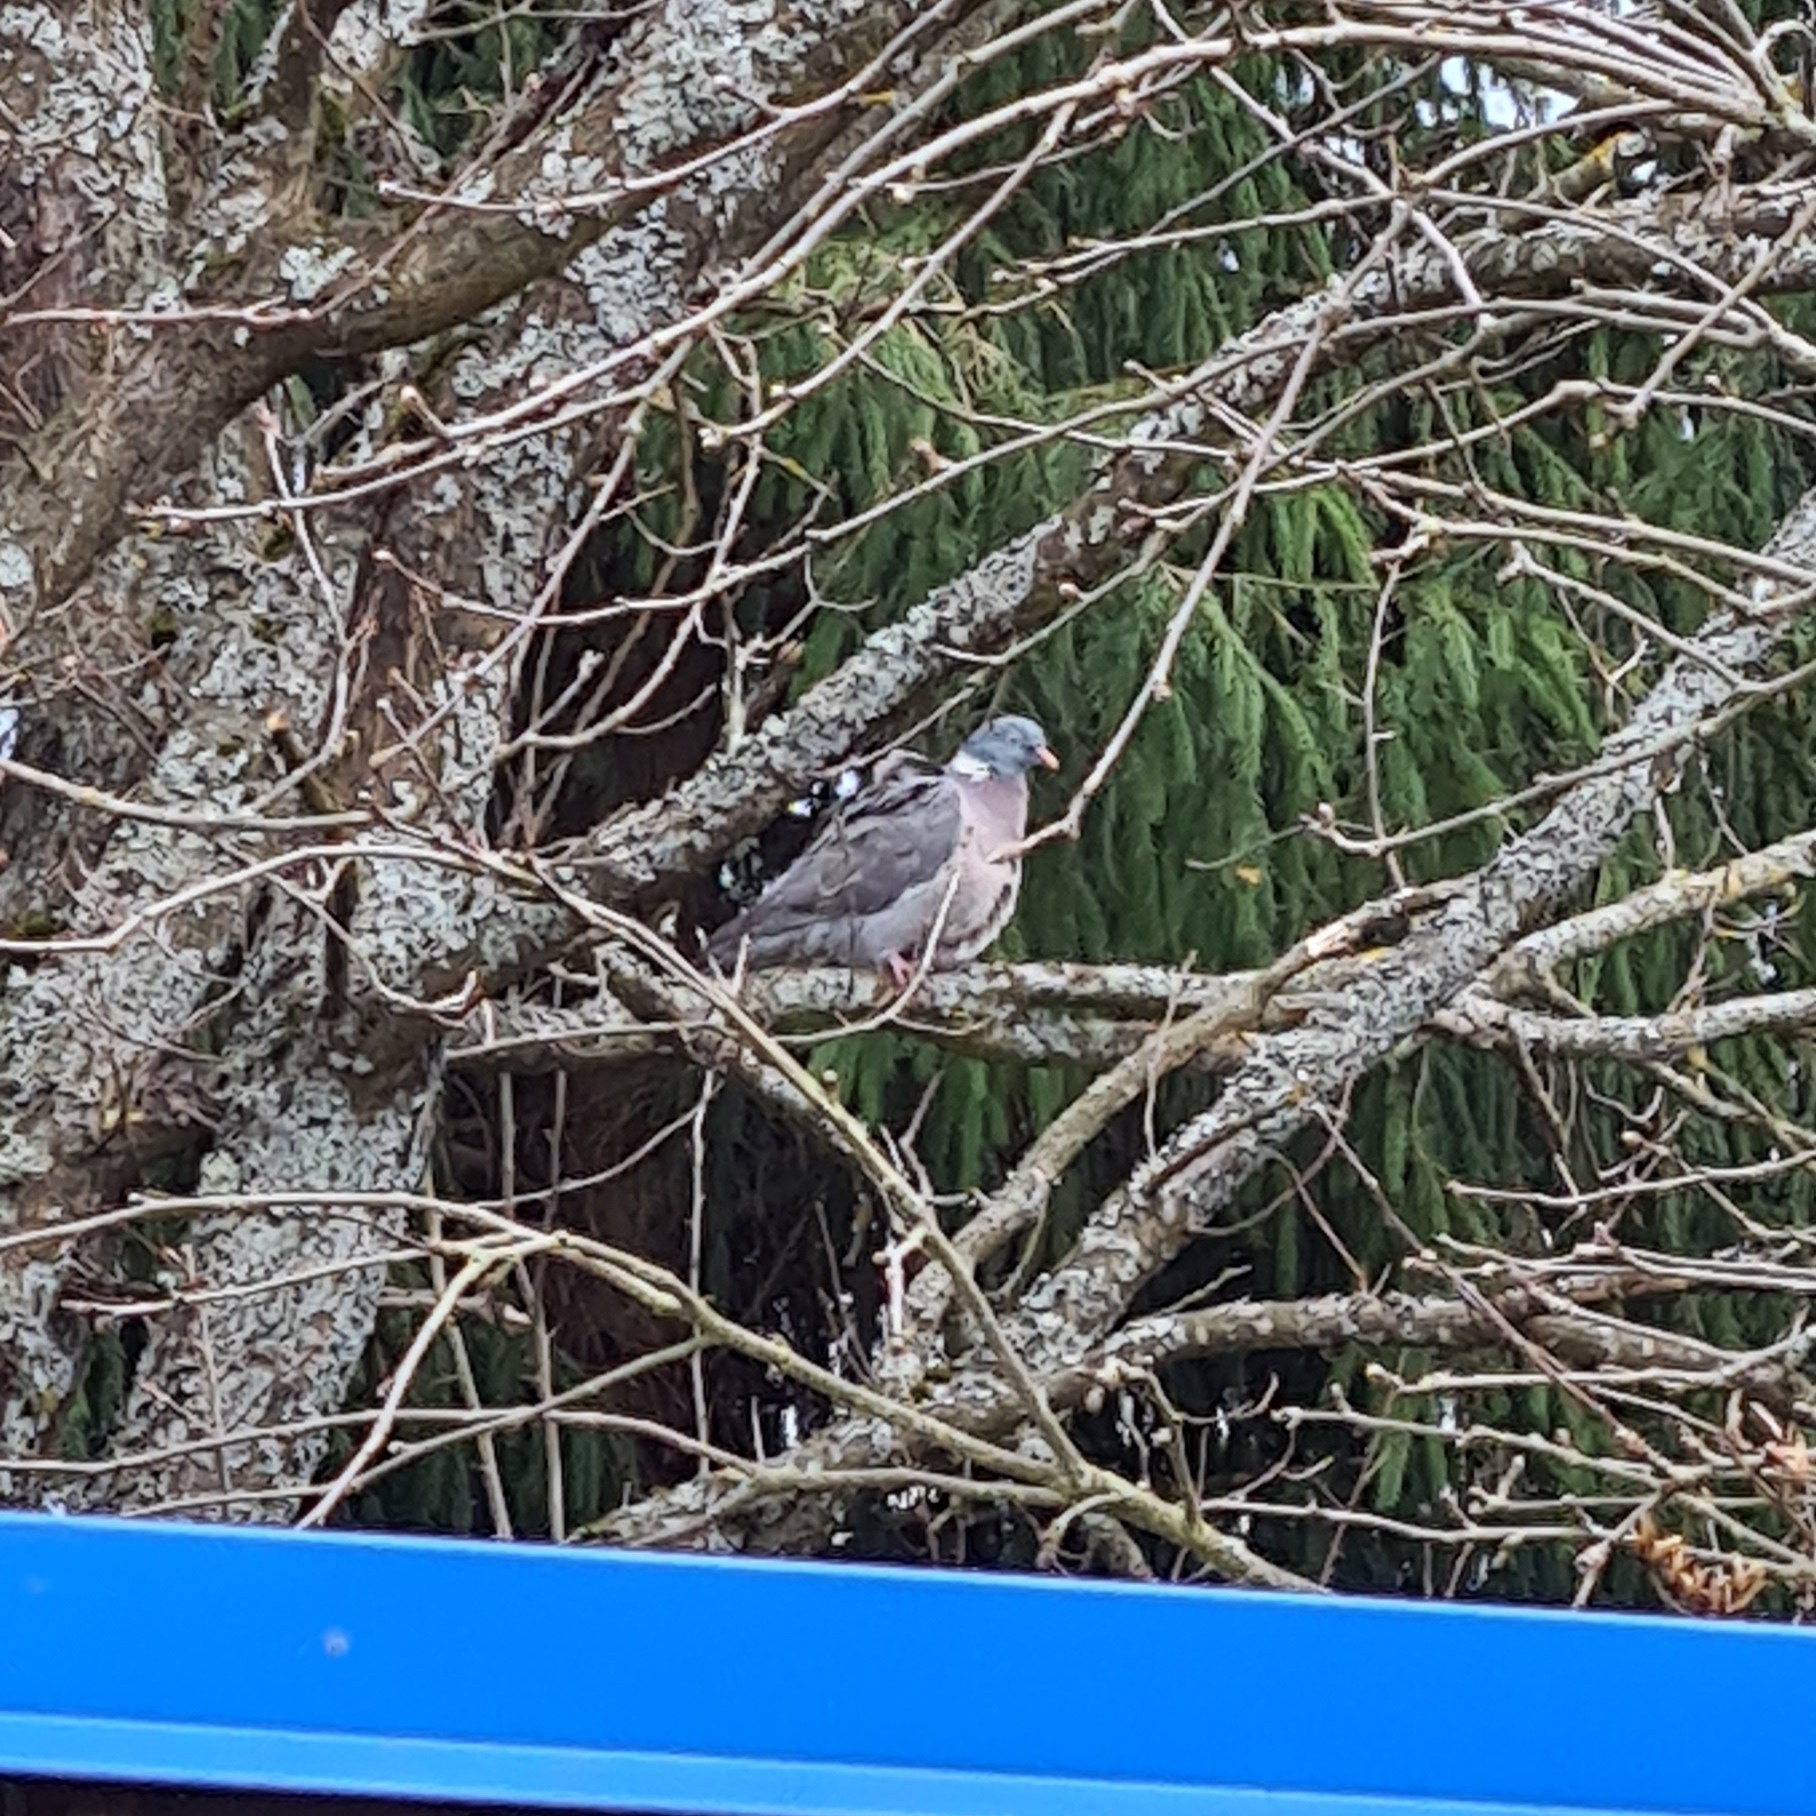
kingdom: Animalia
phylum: Chordata
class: Aves
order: Columbiformes
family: Columbidae
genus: Columba
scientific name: Columba palumbus
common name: Common wood pigeon
